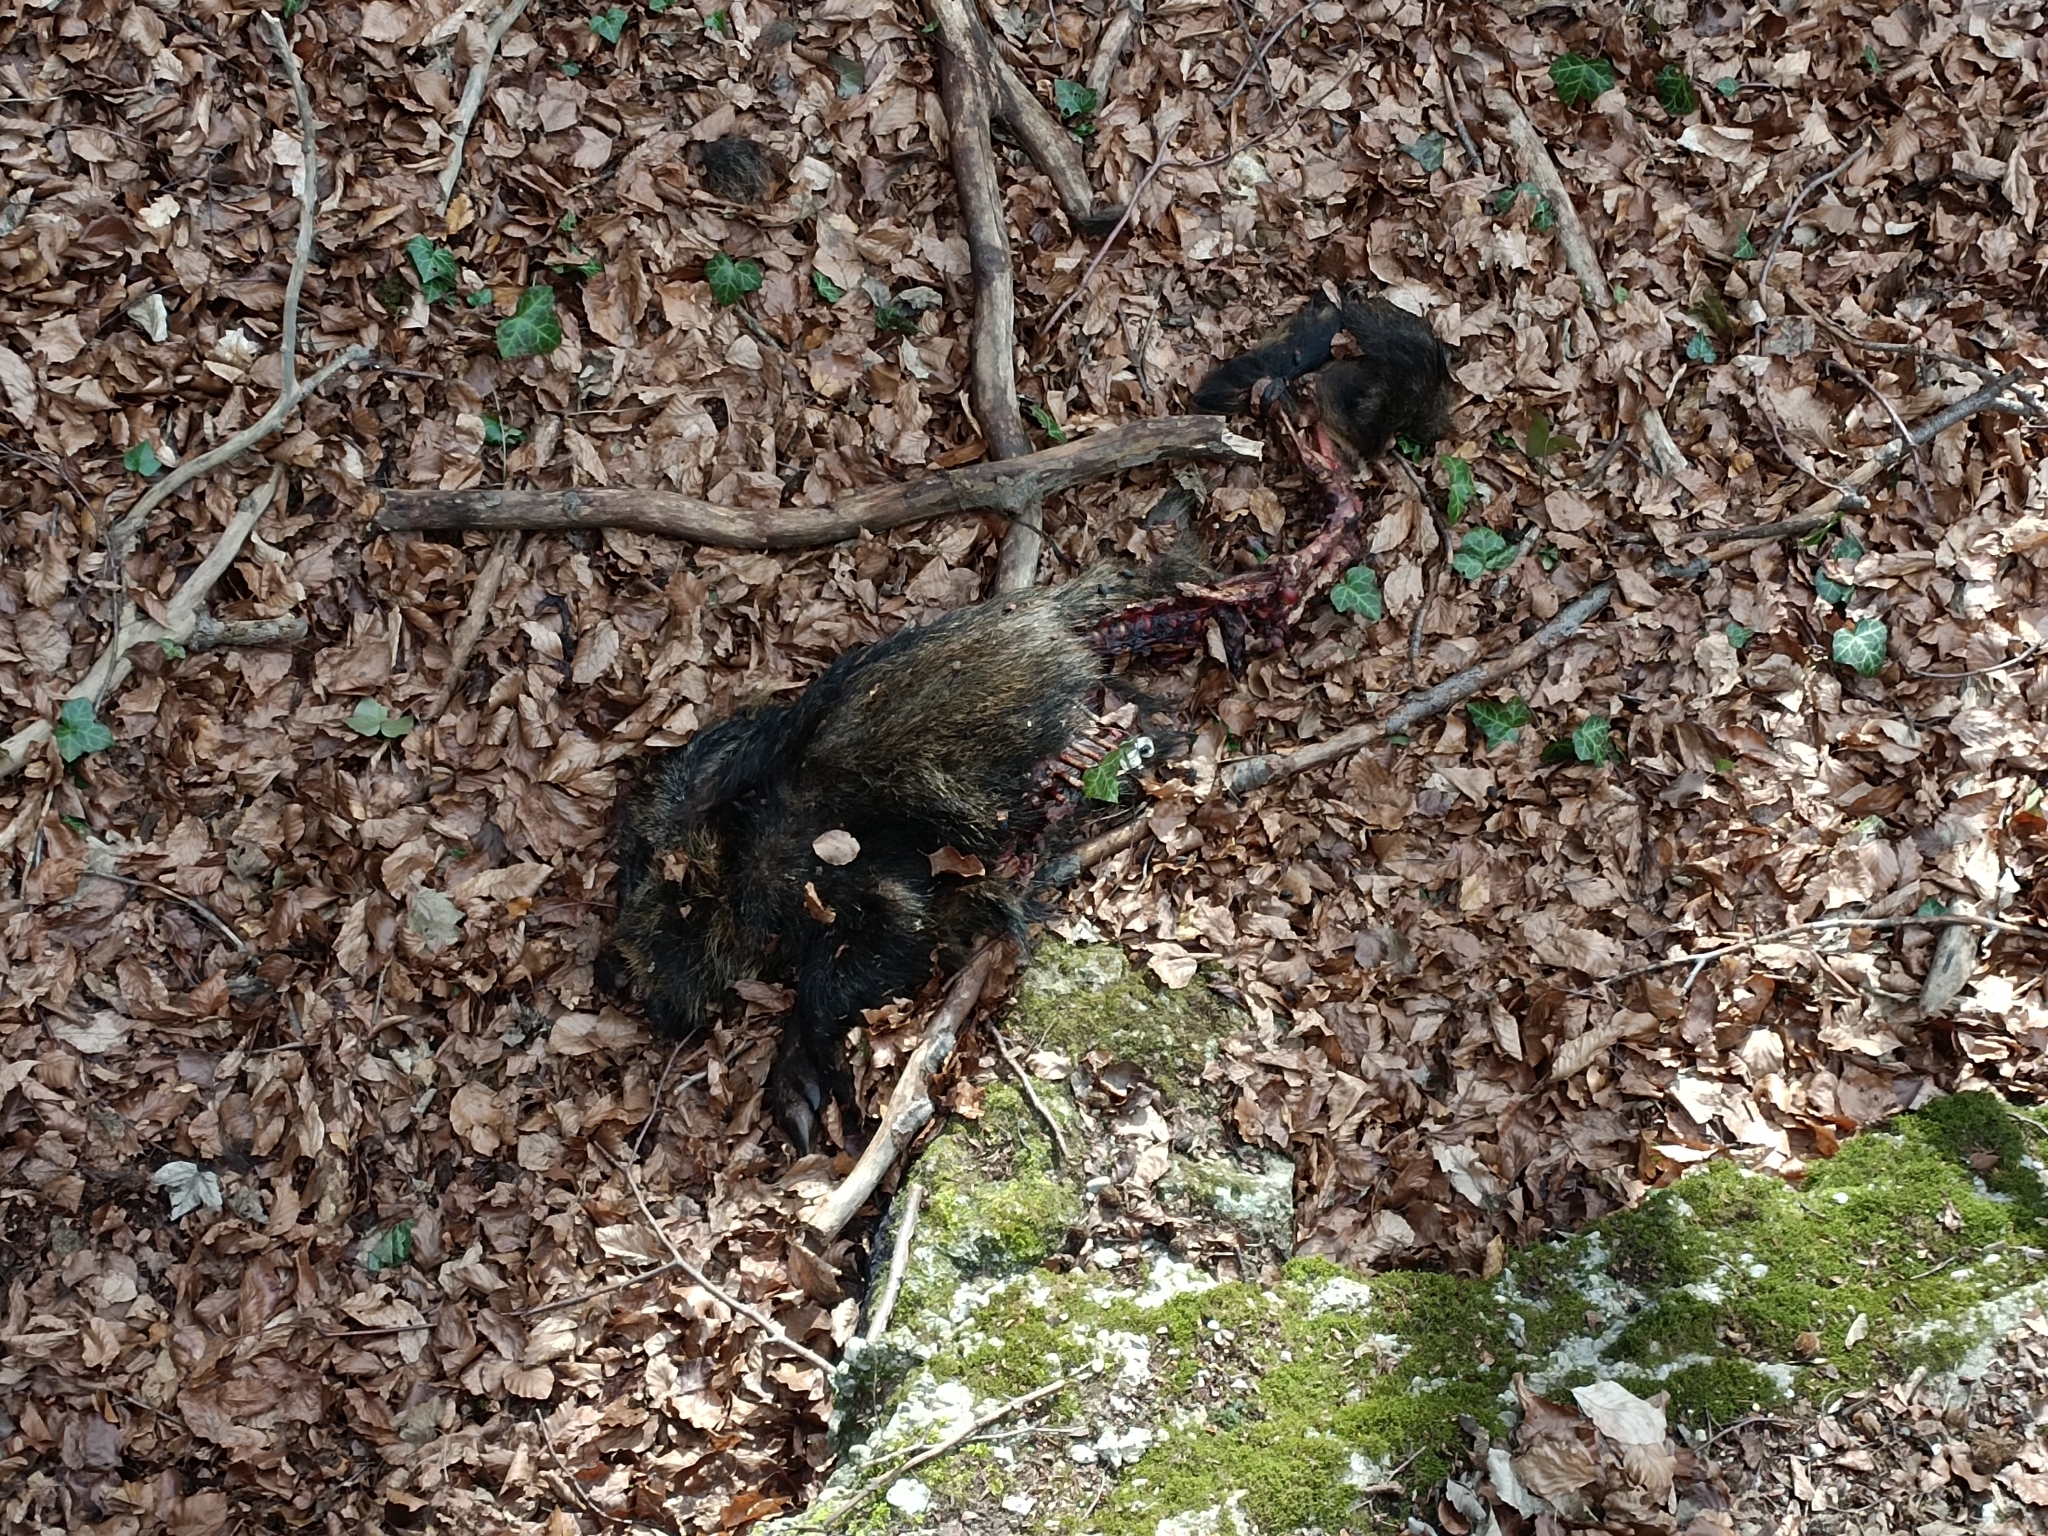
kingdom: Animalia
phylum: Chordata
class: Mammalia
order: Artiodactyla
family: Suidae
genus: Sus
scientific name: Sus scrofa
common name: Wild boar
